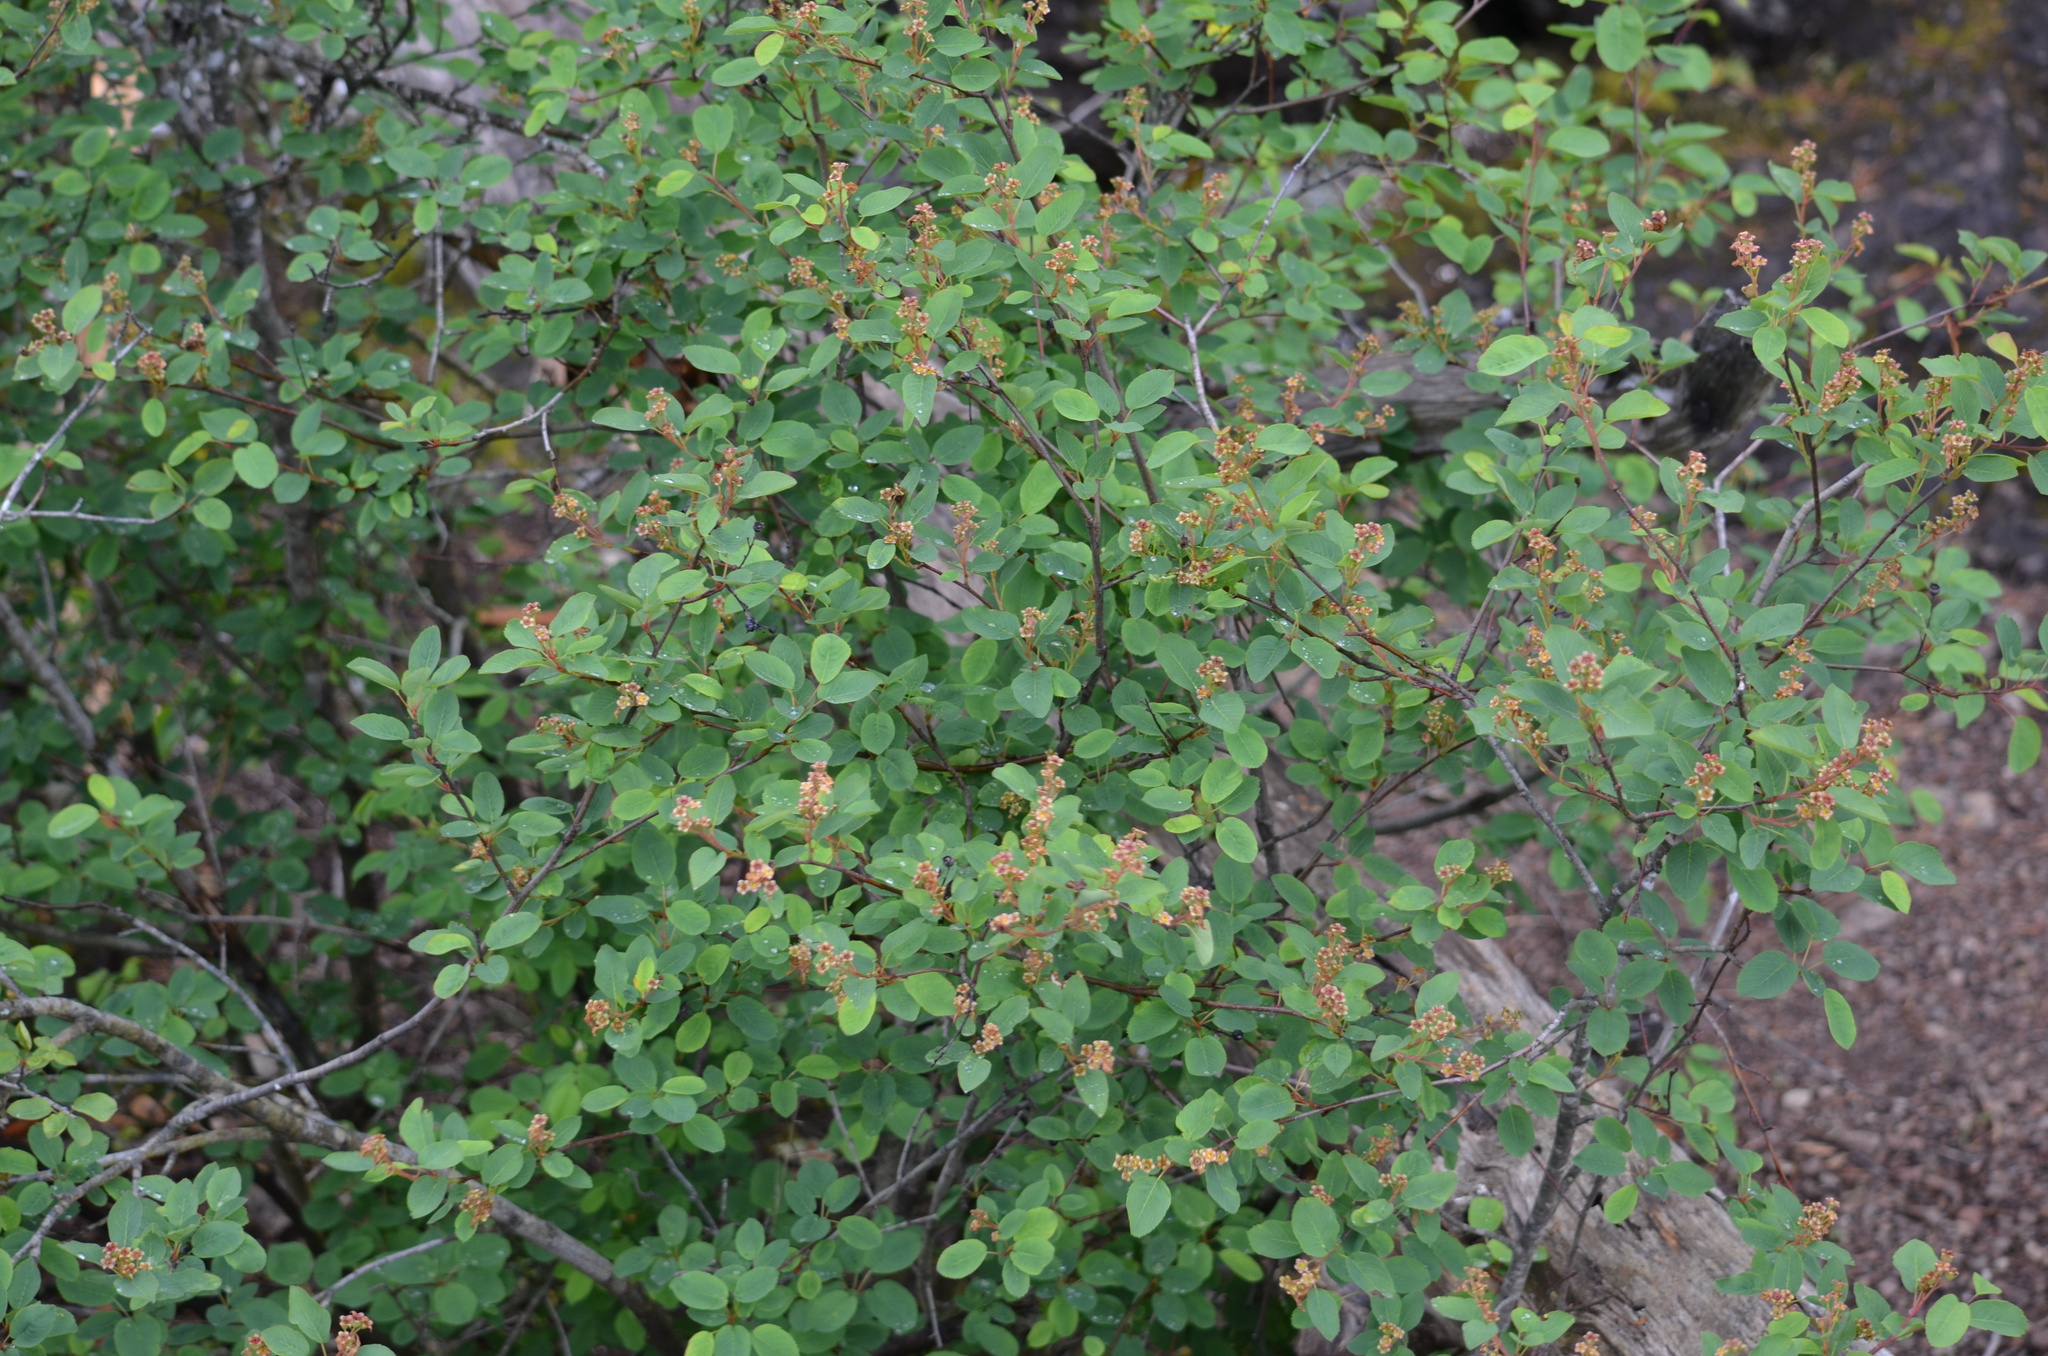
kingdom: Plantae
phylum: Tracheophyta
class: Magnoliopsida
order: Rosales
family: Rosaceae
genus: Amelanchier
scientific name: Amelanchier alnifolia
